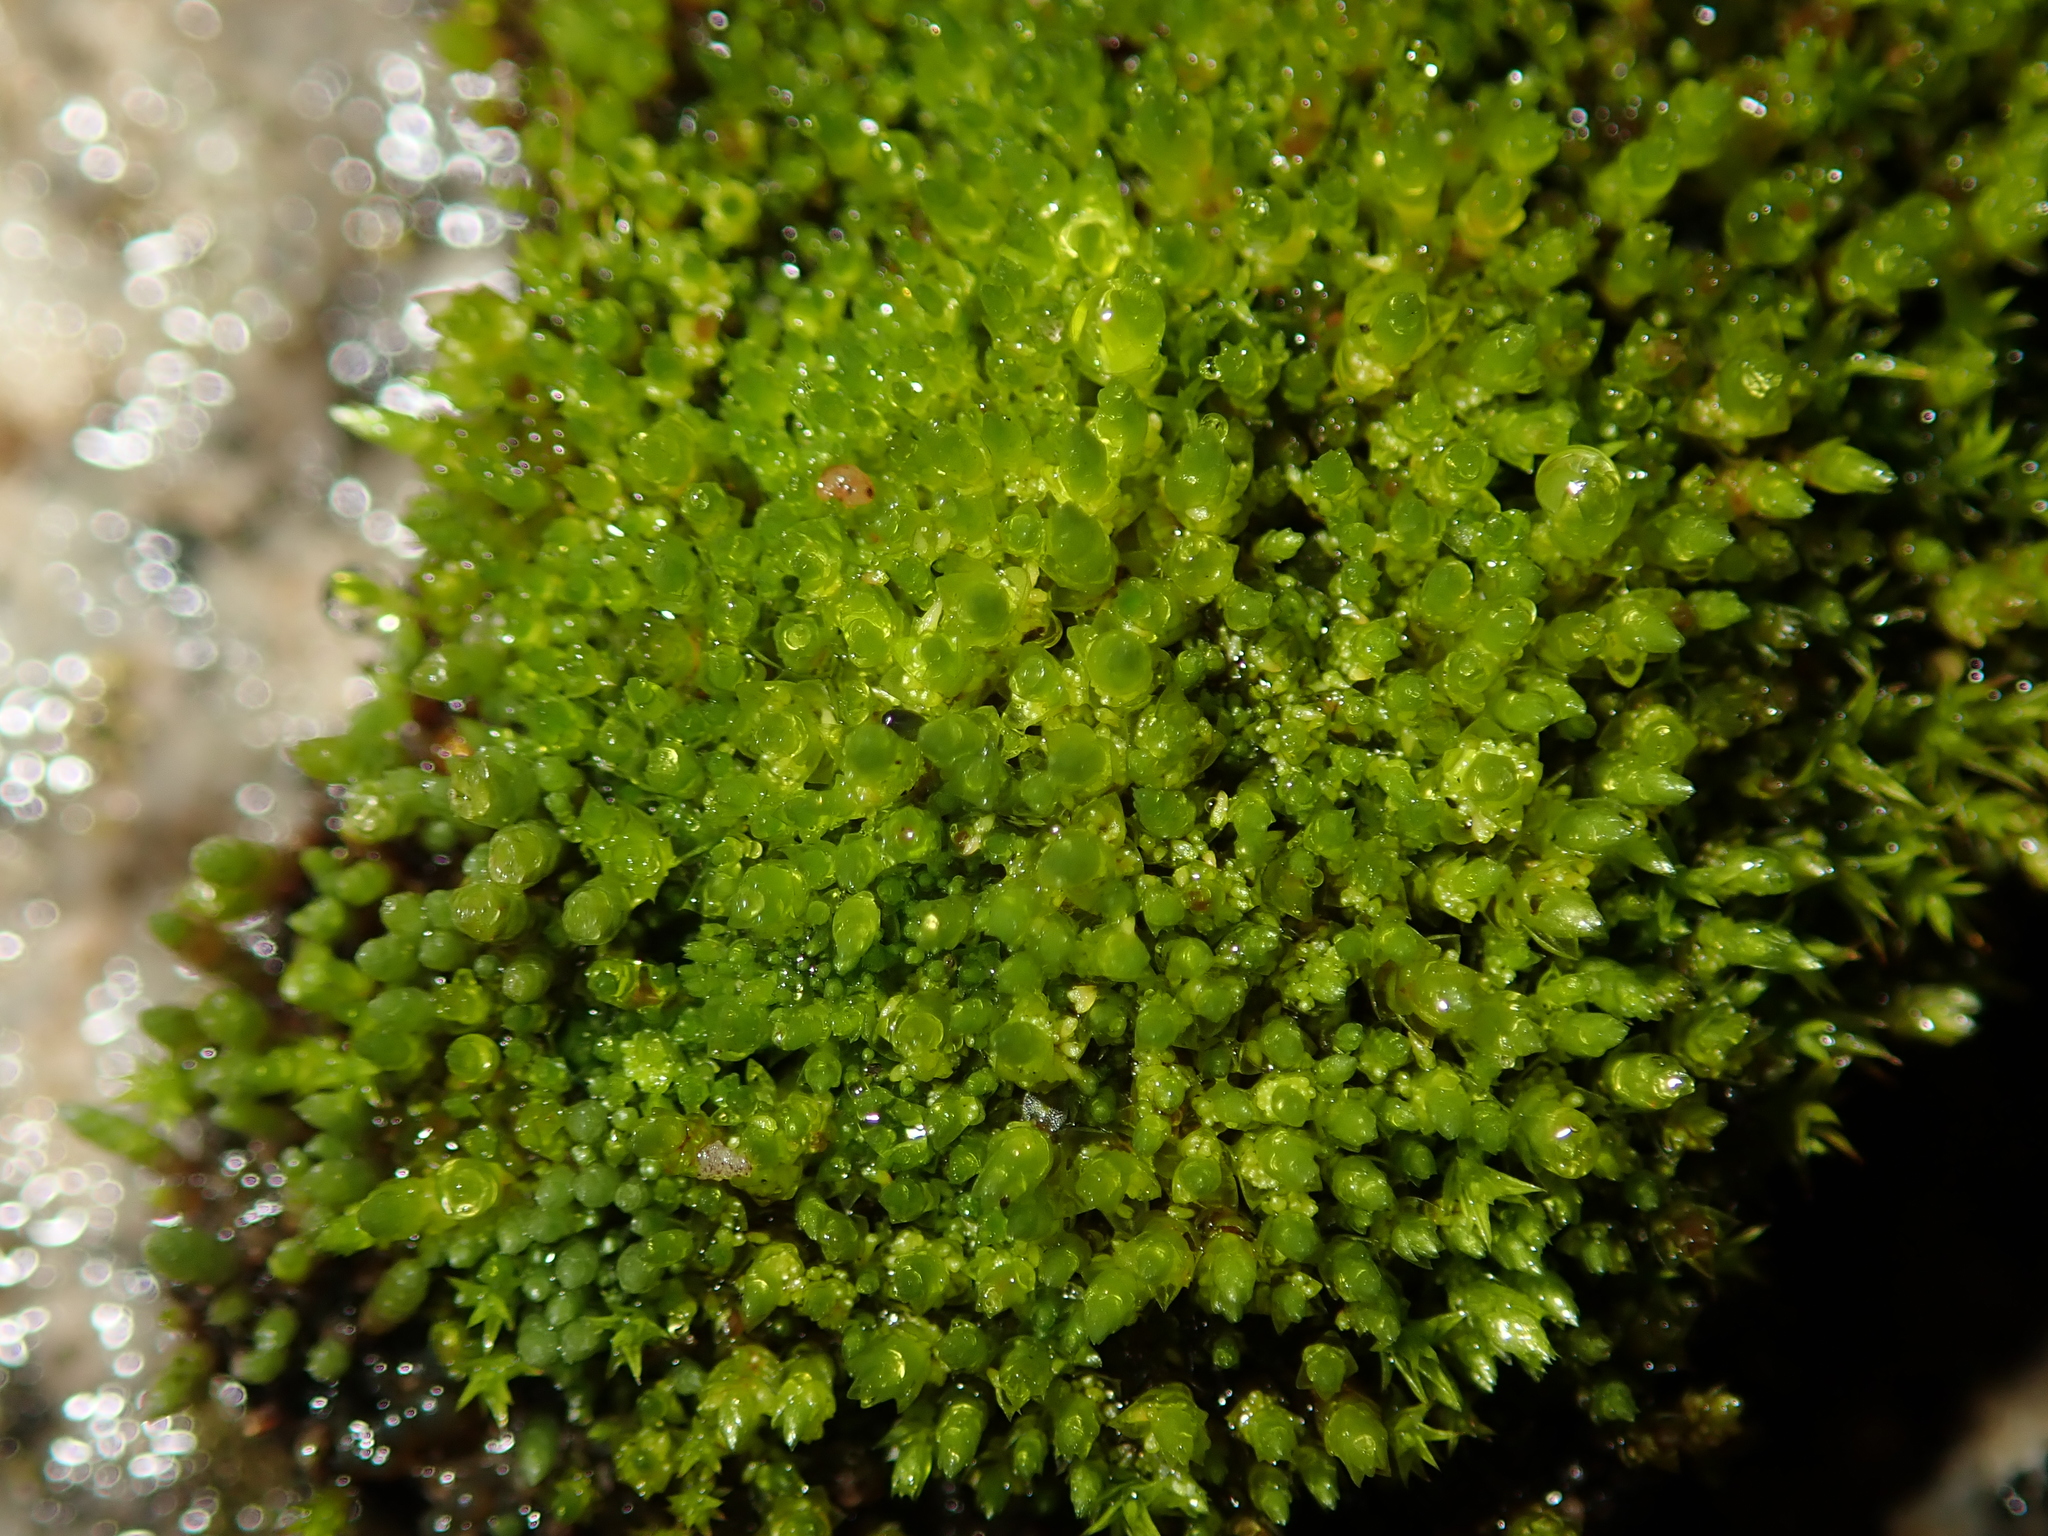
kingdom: Plantae
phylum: Bryophyta
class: Bryopsida
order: Bryales
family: Bryaceae
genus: Bryum
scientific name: Bryum argenteum
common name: Silver-moss
